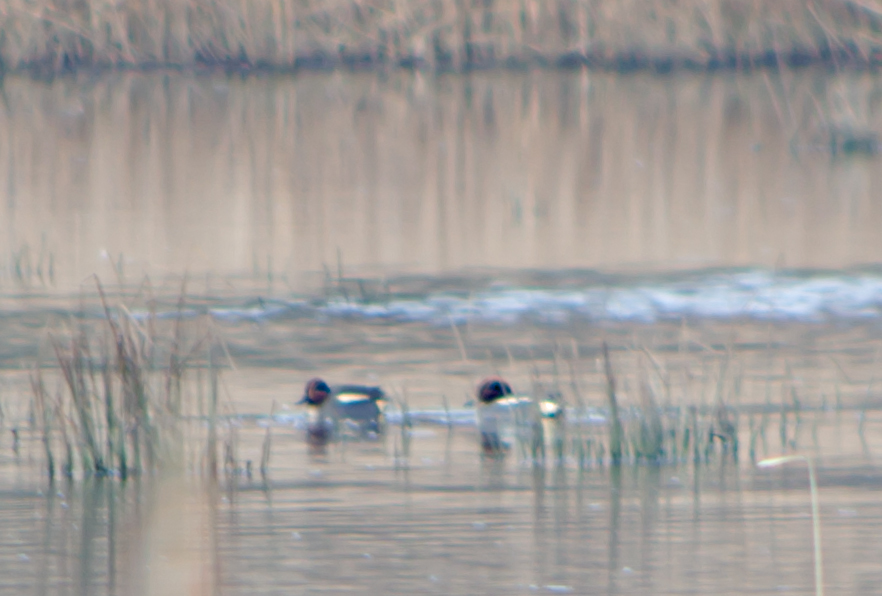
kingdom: Animalia
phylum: Chordata
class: Aves
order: Anseriformes
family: Anatidae
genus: Anas
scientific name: Anas crecca
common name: Eurasian teal
